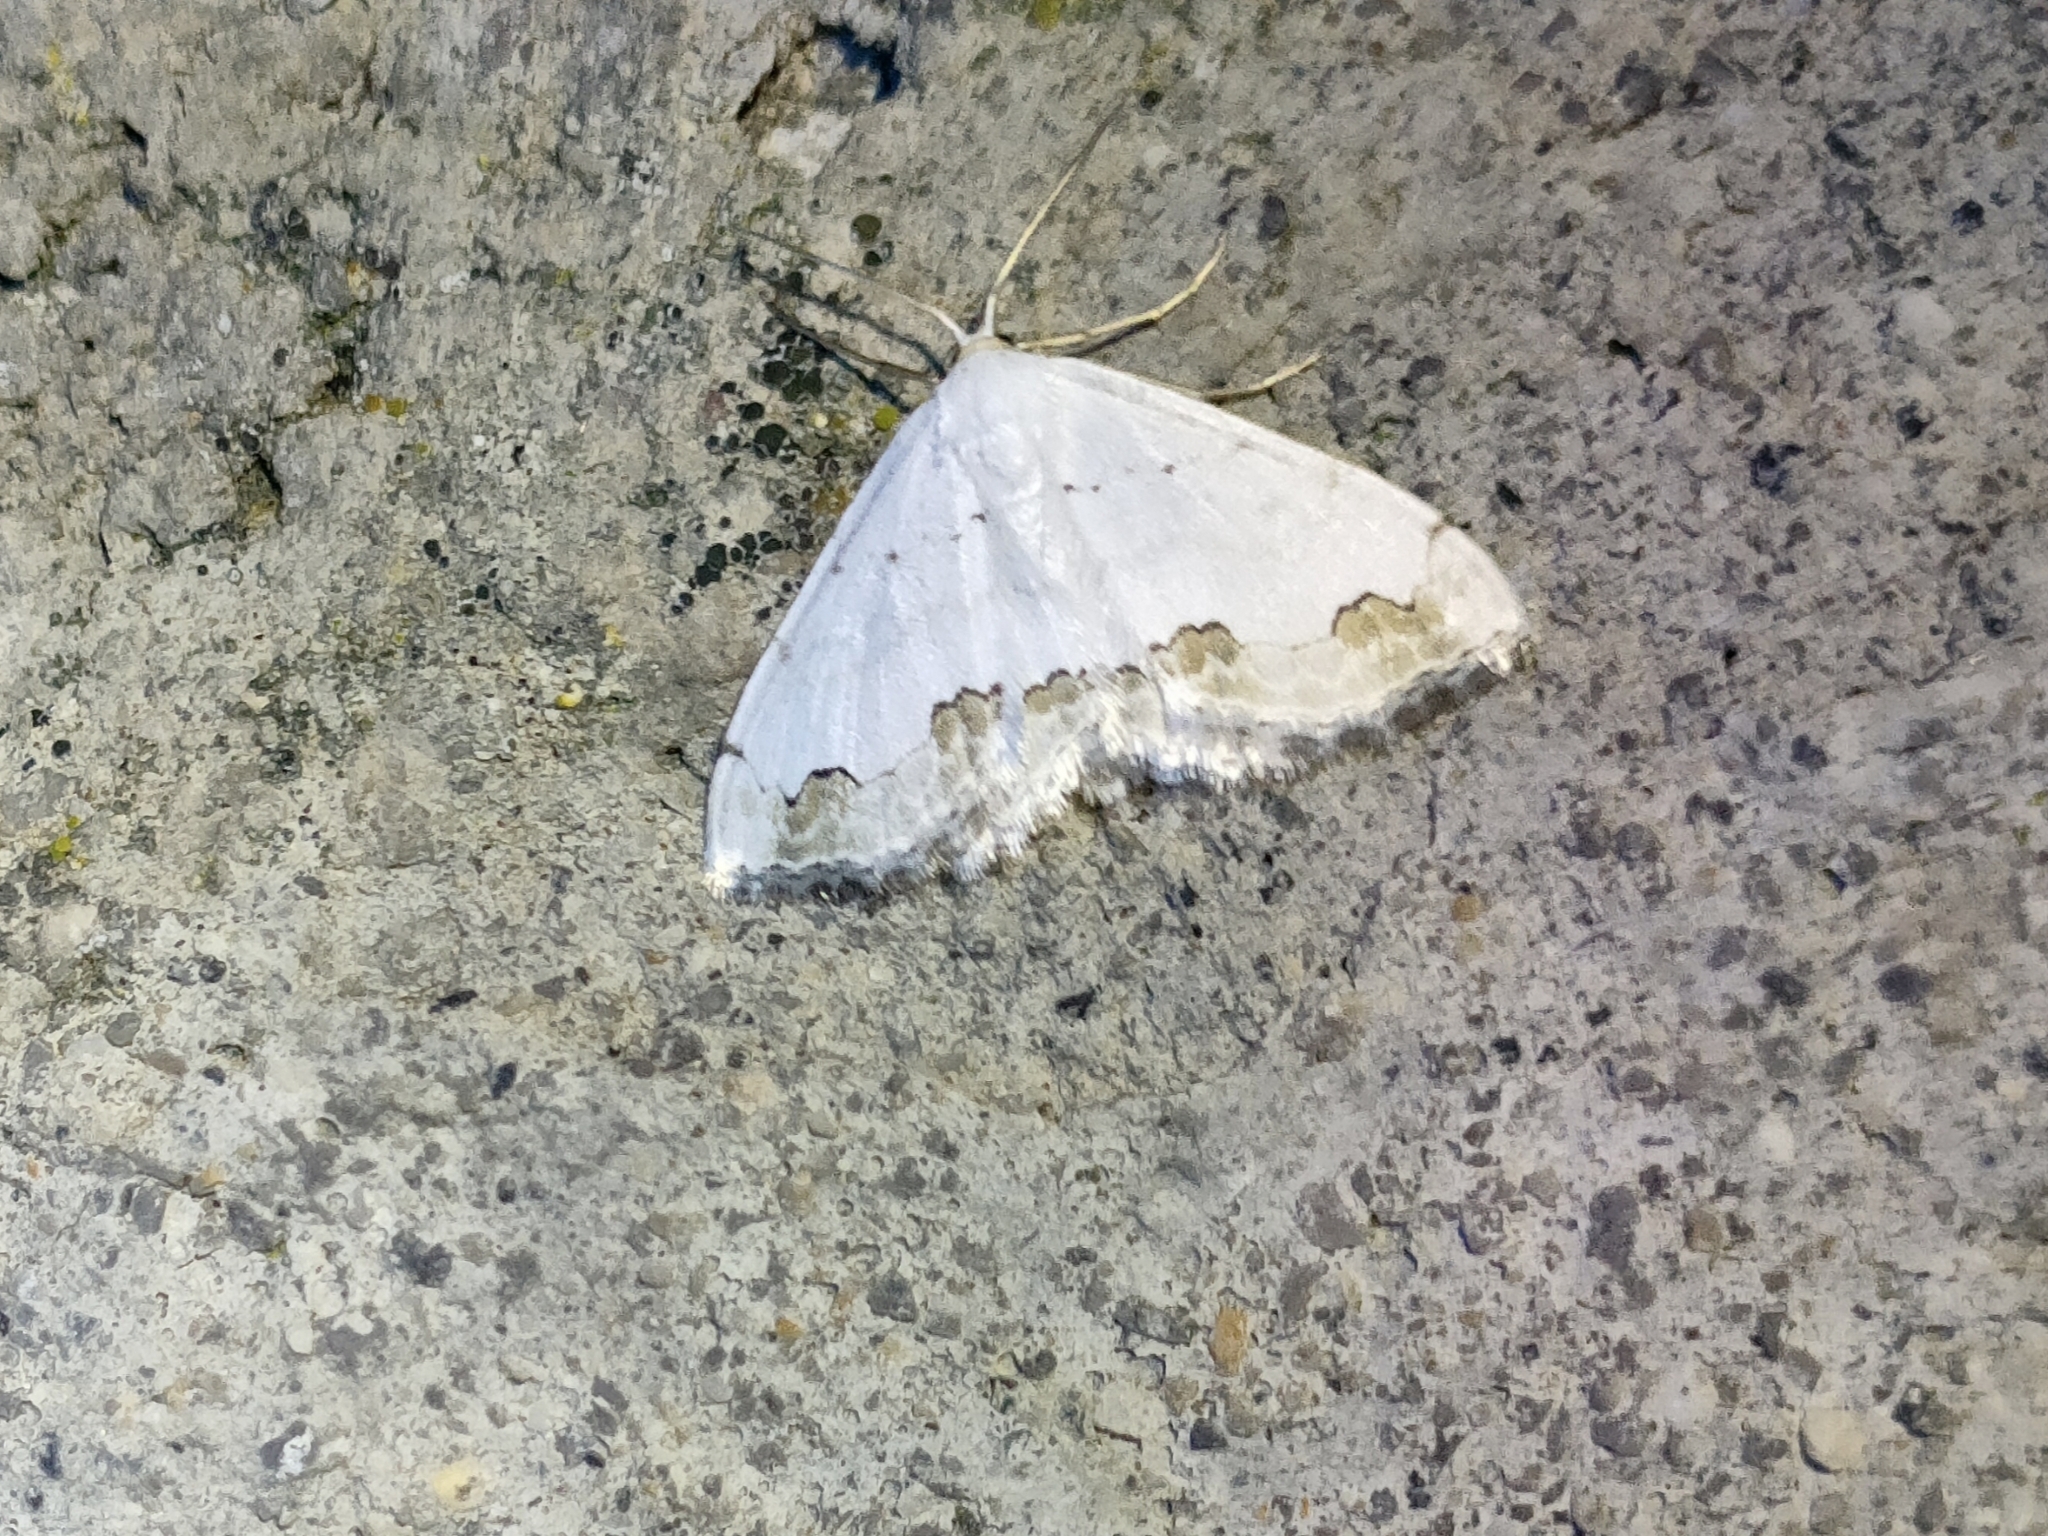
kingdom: Animalia
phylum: Arthropoda
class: Insecta
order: Lepidoptera
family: Geometridae
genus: Scopula
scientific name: Scopula ornata
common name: Lace border
